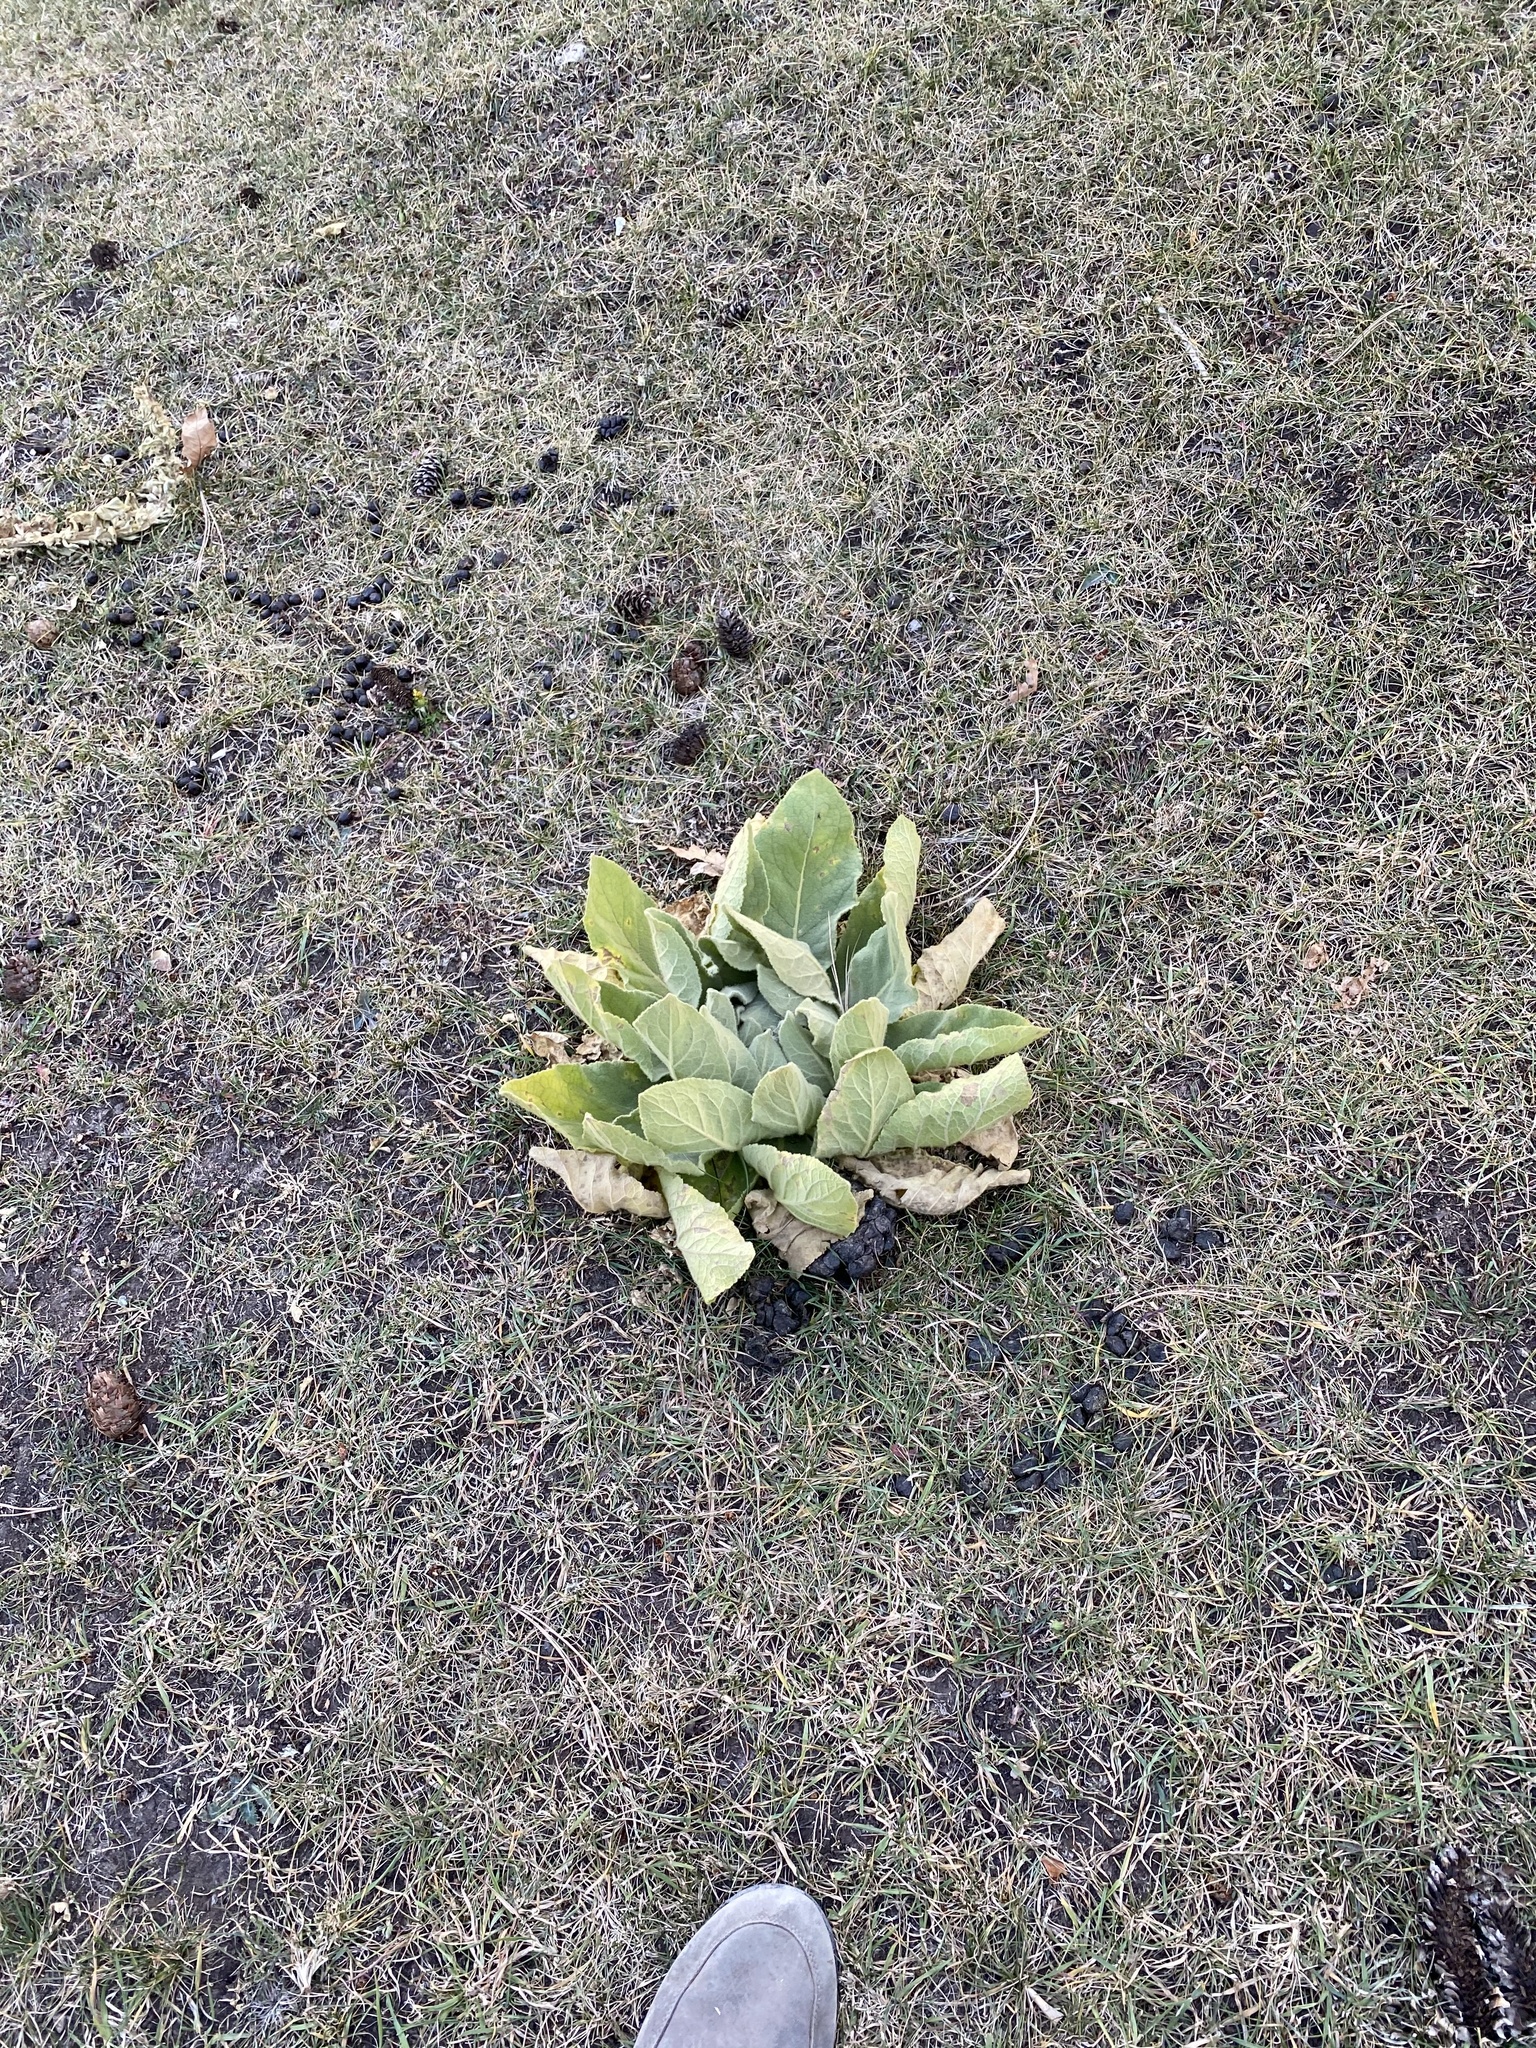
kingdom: Plantae
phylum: Tracheophyta
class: Magnoliopsida
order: Lamiales
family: Scrophulariaceae
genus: Verbascum
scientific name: Verbascum thapsus
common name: Common mullein
